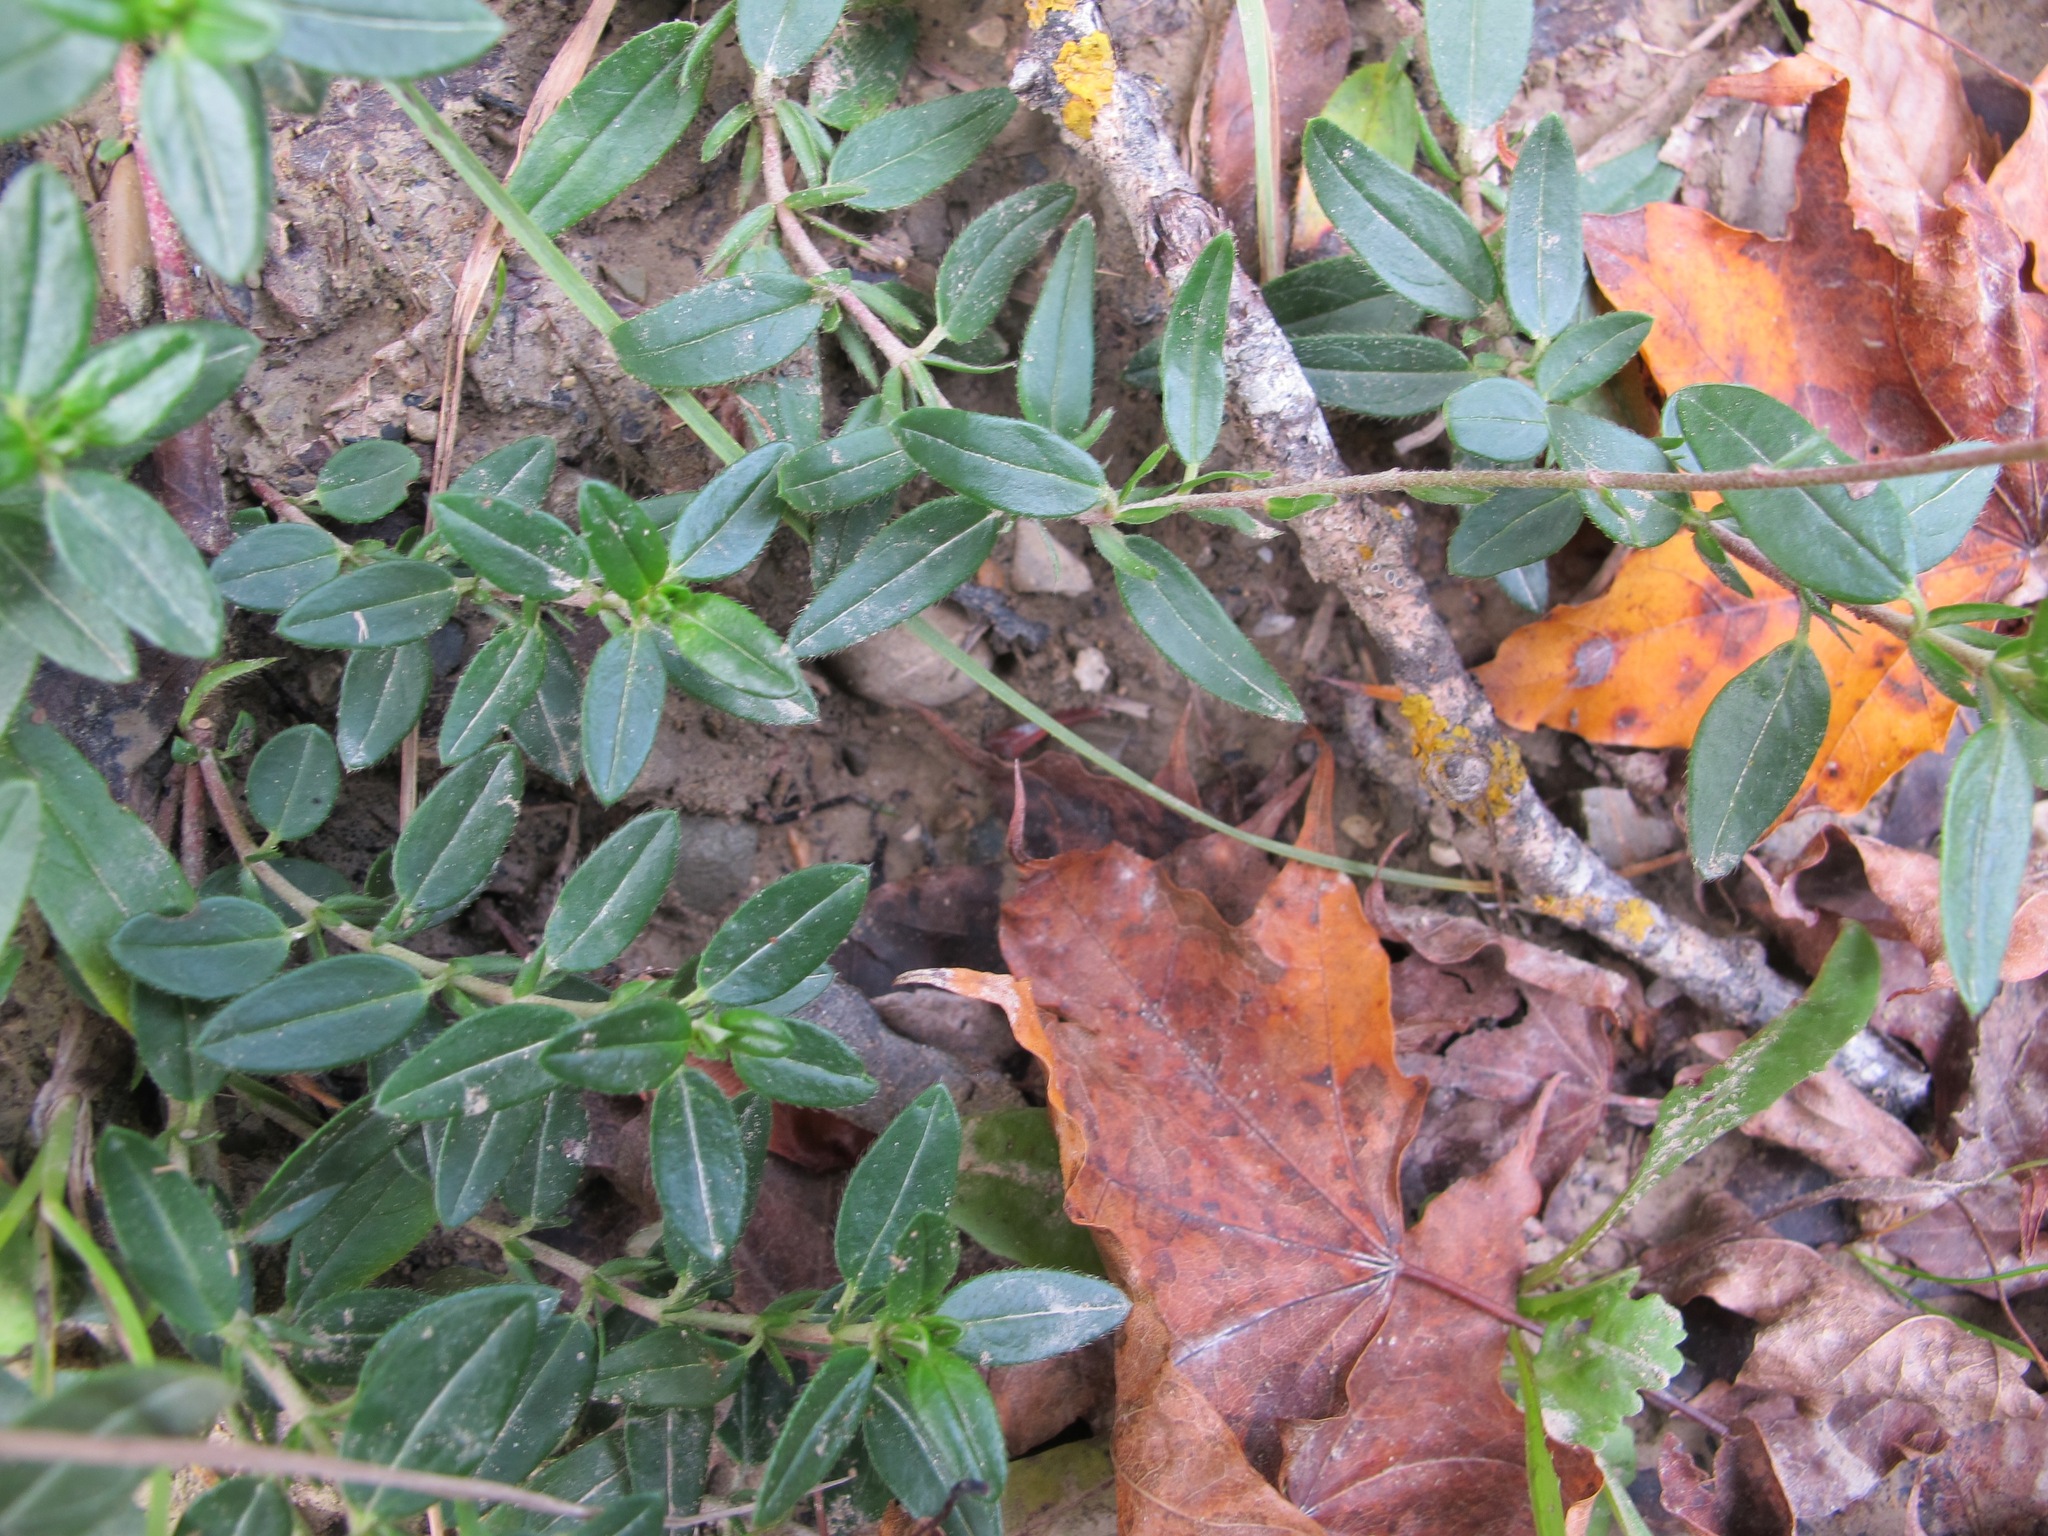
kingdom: Plantae
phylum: Tracheophyta
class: Magnoliopsida
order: Malvales
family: Cistaceae
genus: Helianthemum
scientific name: Helianthemum nummularium
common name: Common rock-rose
